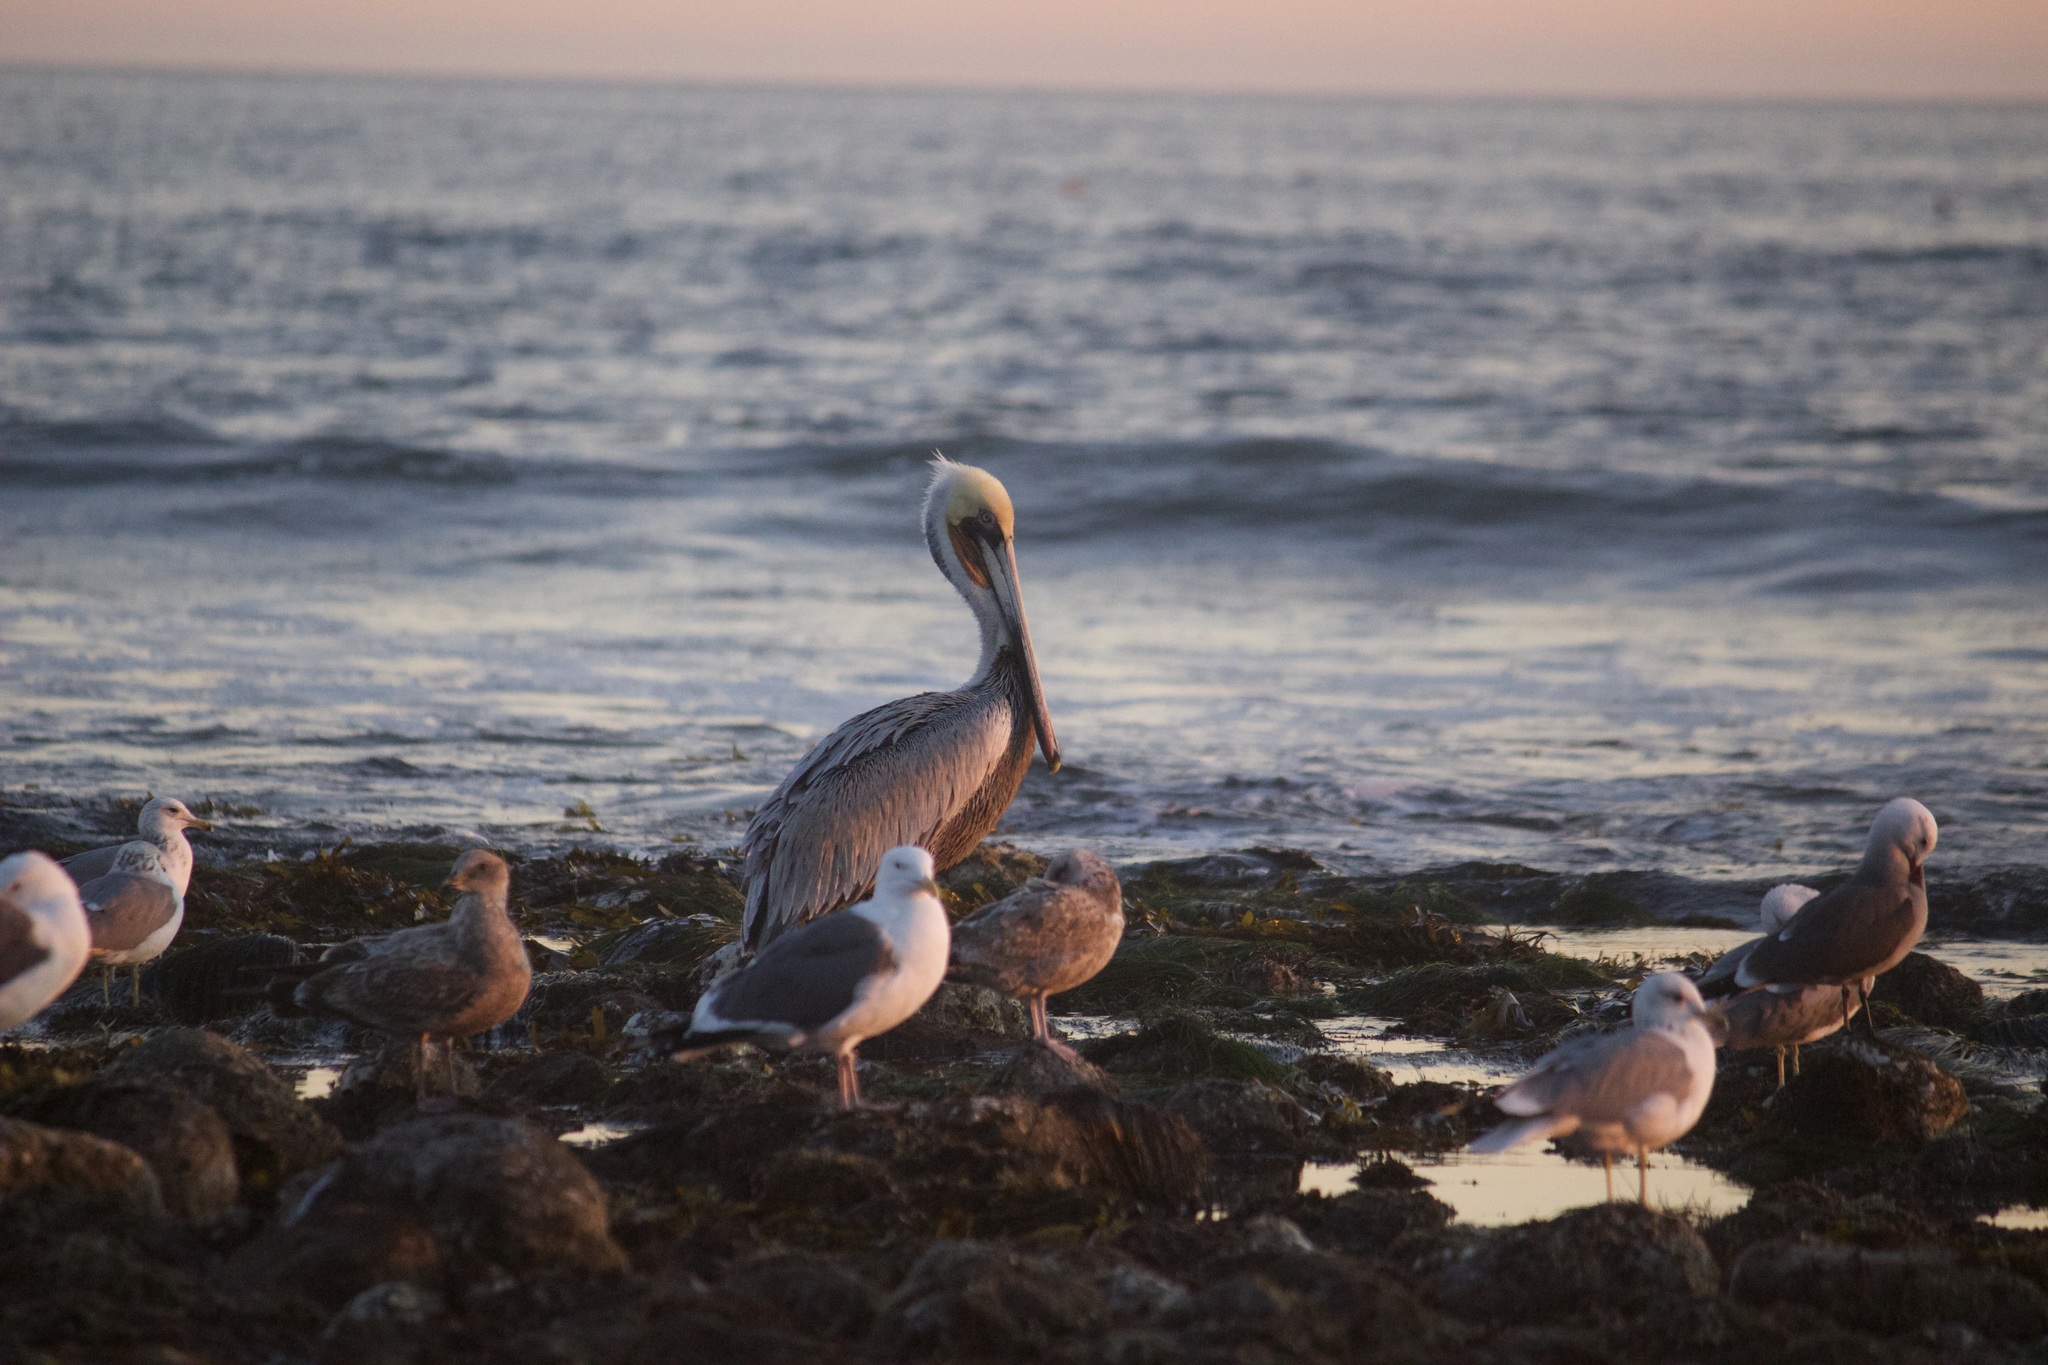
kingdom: Animalia
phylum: Chordata
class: Aves
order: Pelecaniformes
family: Pelecanidae
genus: Pelecanus
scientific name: Pelecanus occidentalis
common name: Brown pelican
